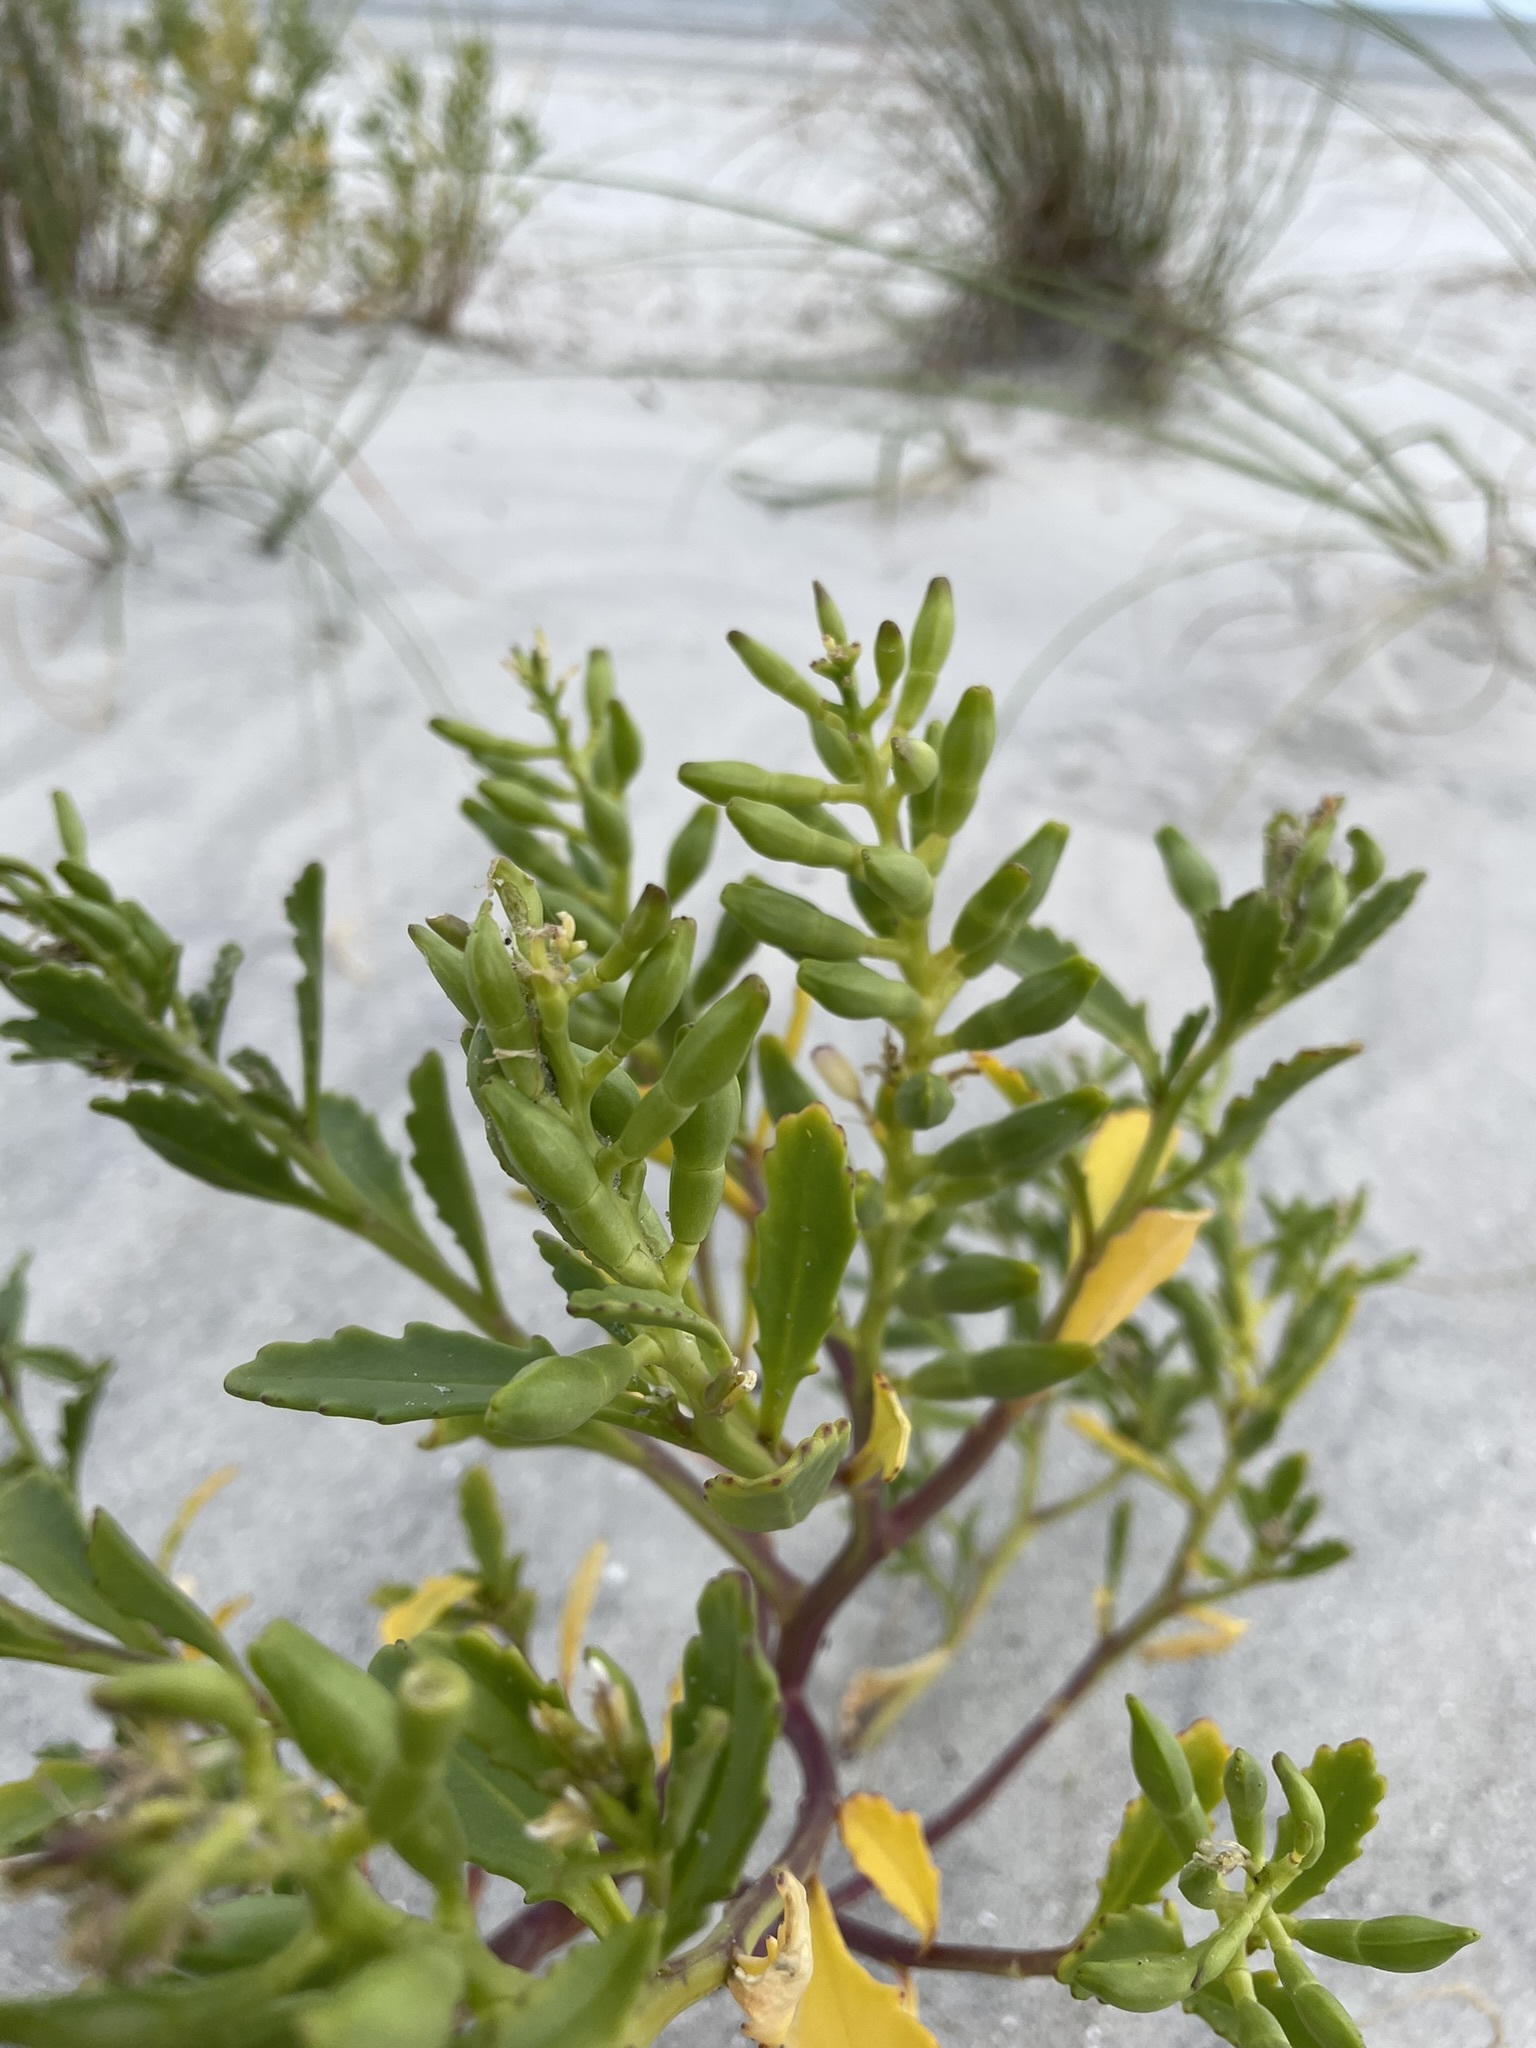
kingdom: Plantae
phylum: Tracheophyta
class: Magnoliopsida
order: Brassicales
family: Brassicaceae
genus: Cakile
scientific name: Cakile edentula
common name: American sea rocket
